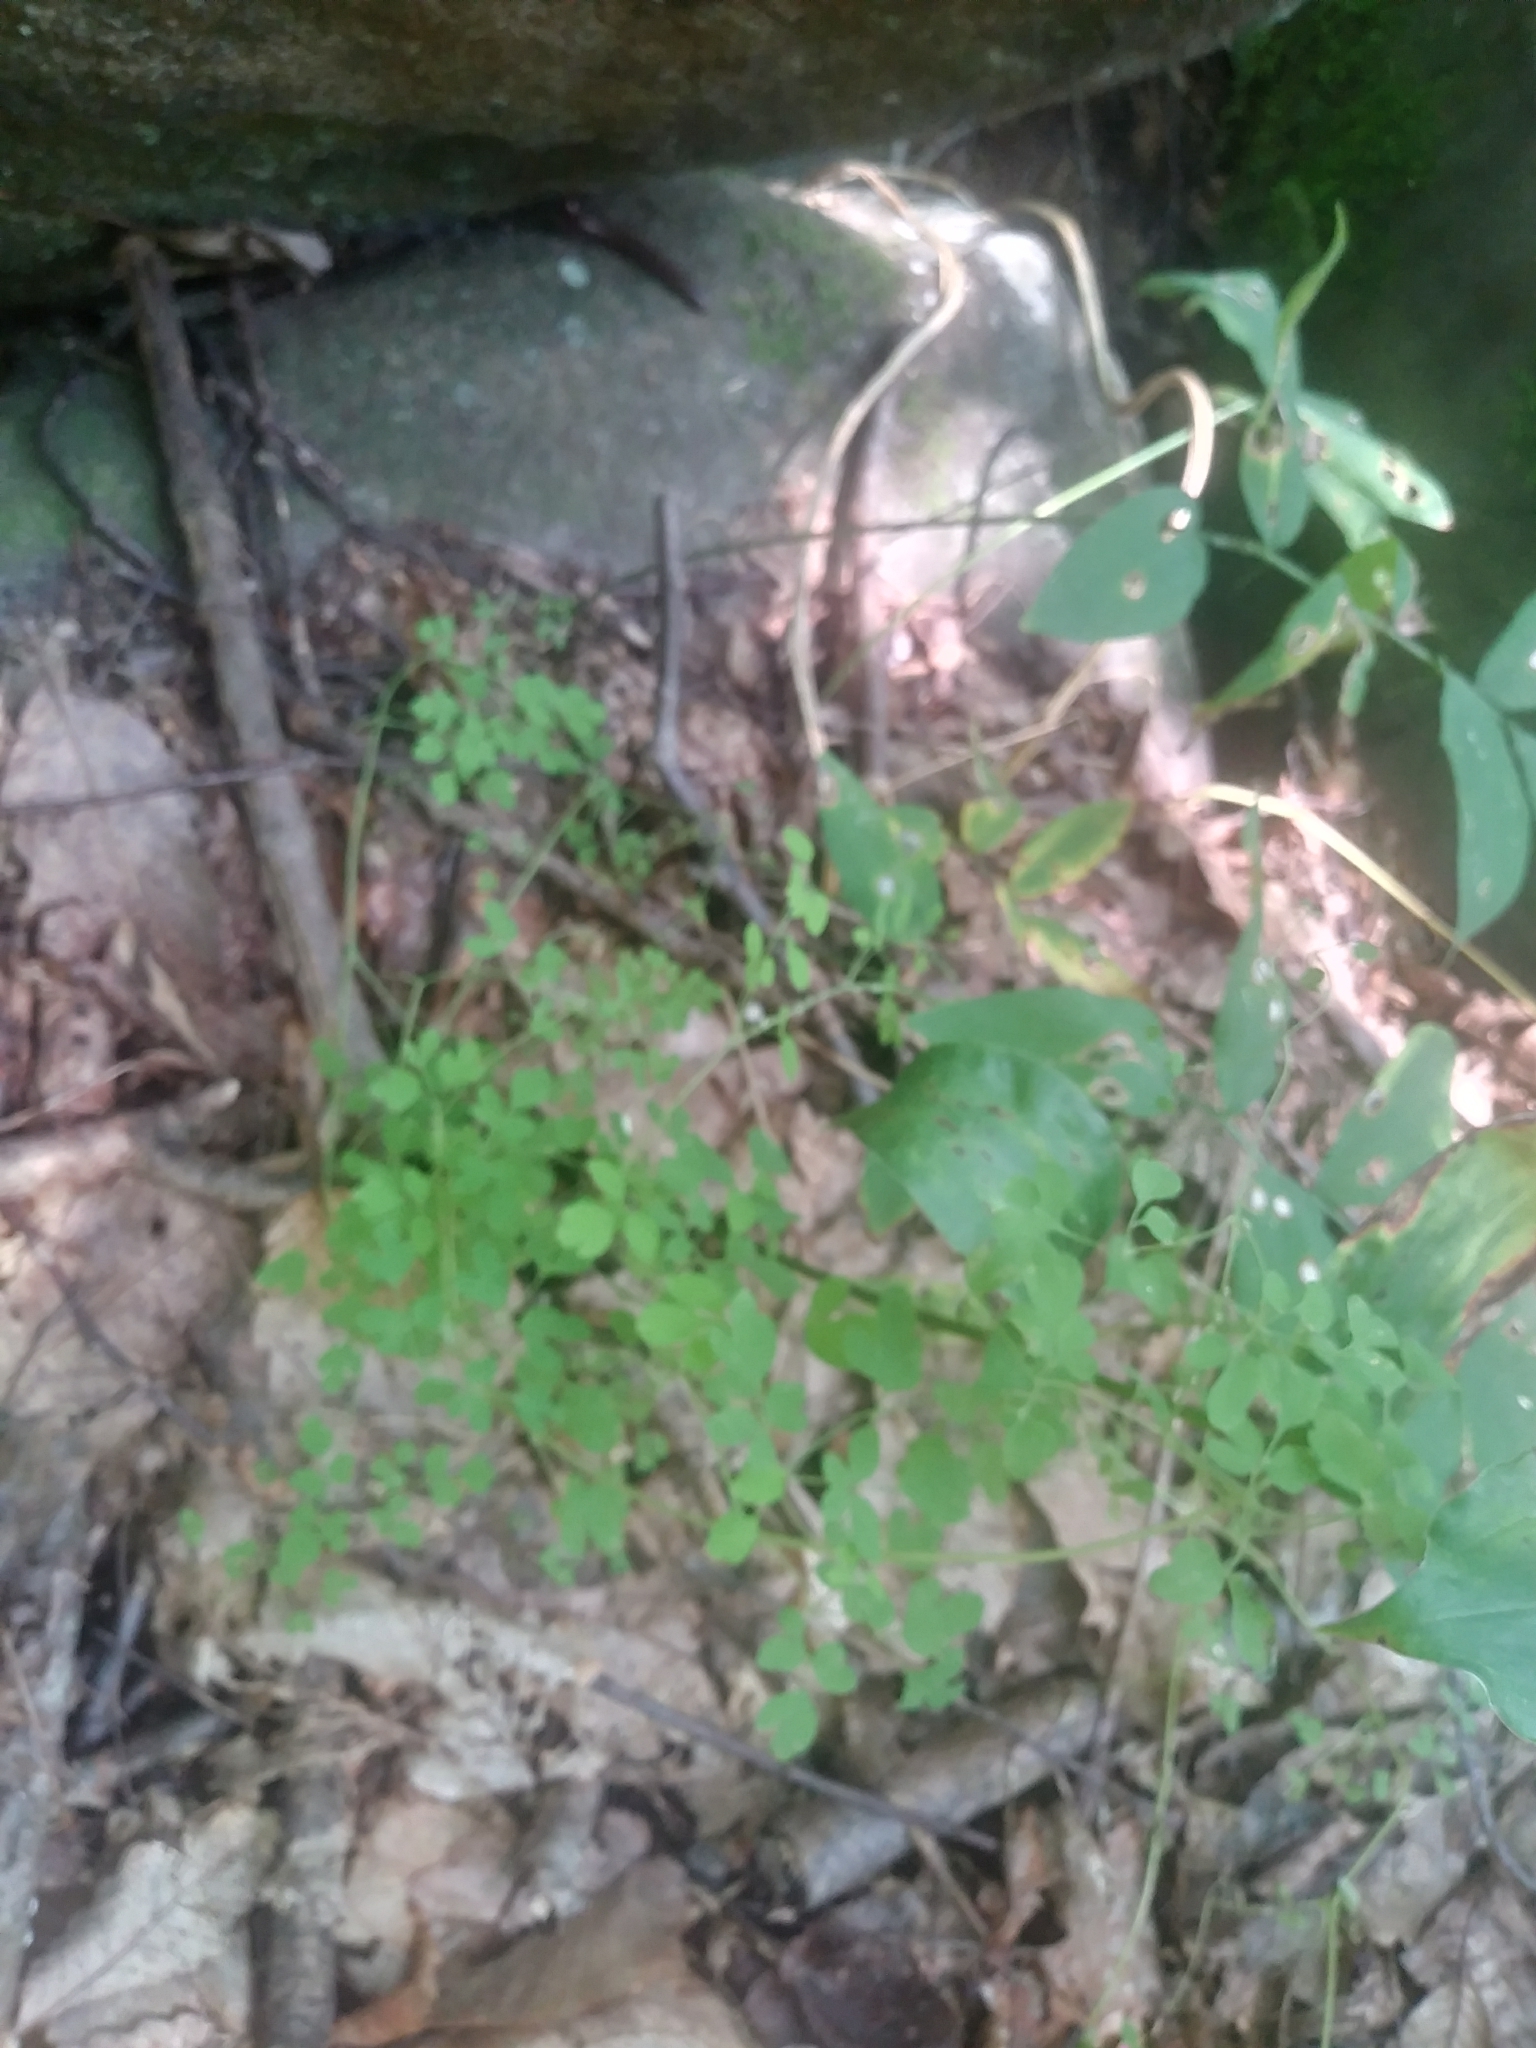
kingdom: Plantae
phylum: Tracheophyta
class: Magnoliopsida
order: Ranunculales
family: Papaveraceae
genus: Adlumia
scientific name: Adlumia fungosa
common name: Mountain-fringe
